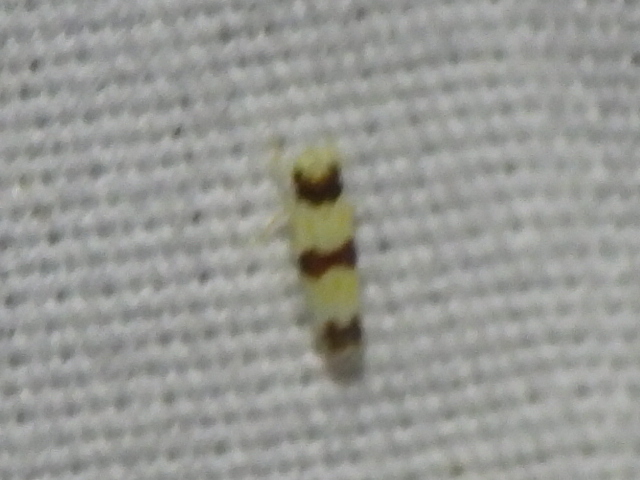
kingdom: Animalia
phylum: Arthropoda
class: Insecta
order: Hemiptera
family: Cicadellidae
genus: Erythroneura
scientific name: Erythroneura tricincta
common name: The threebanded grape leafhopper
